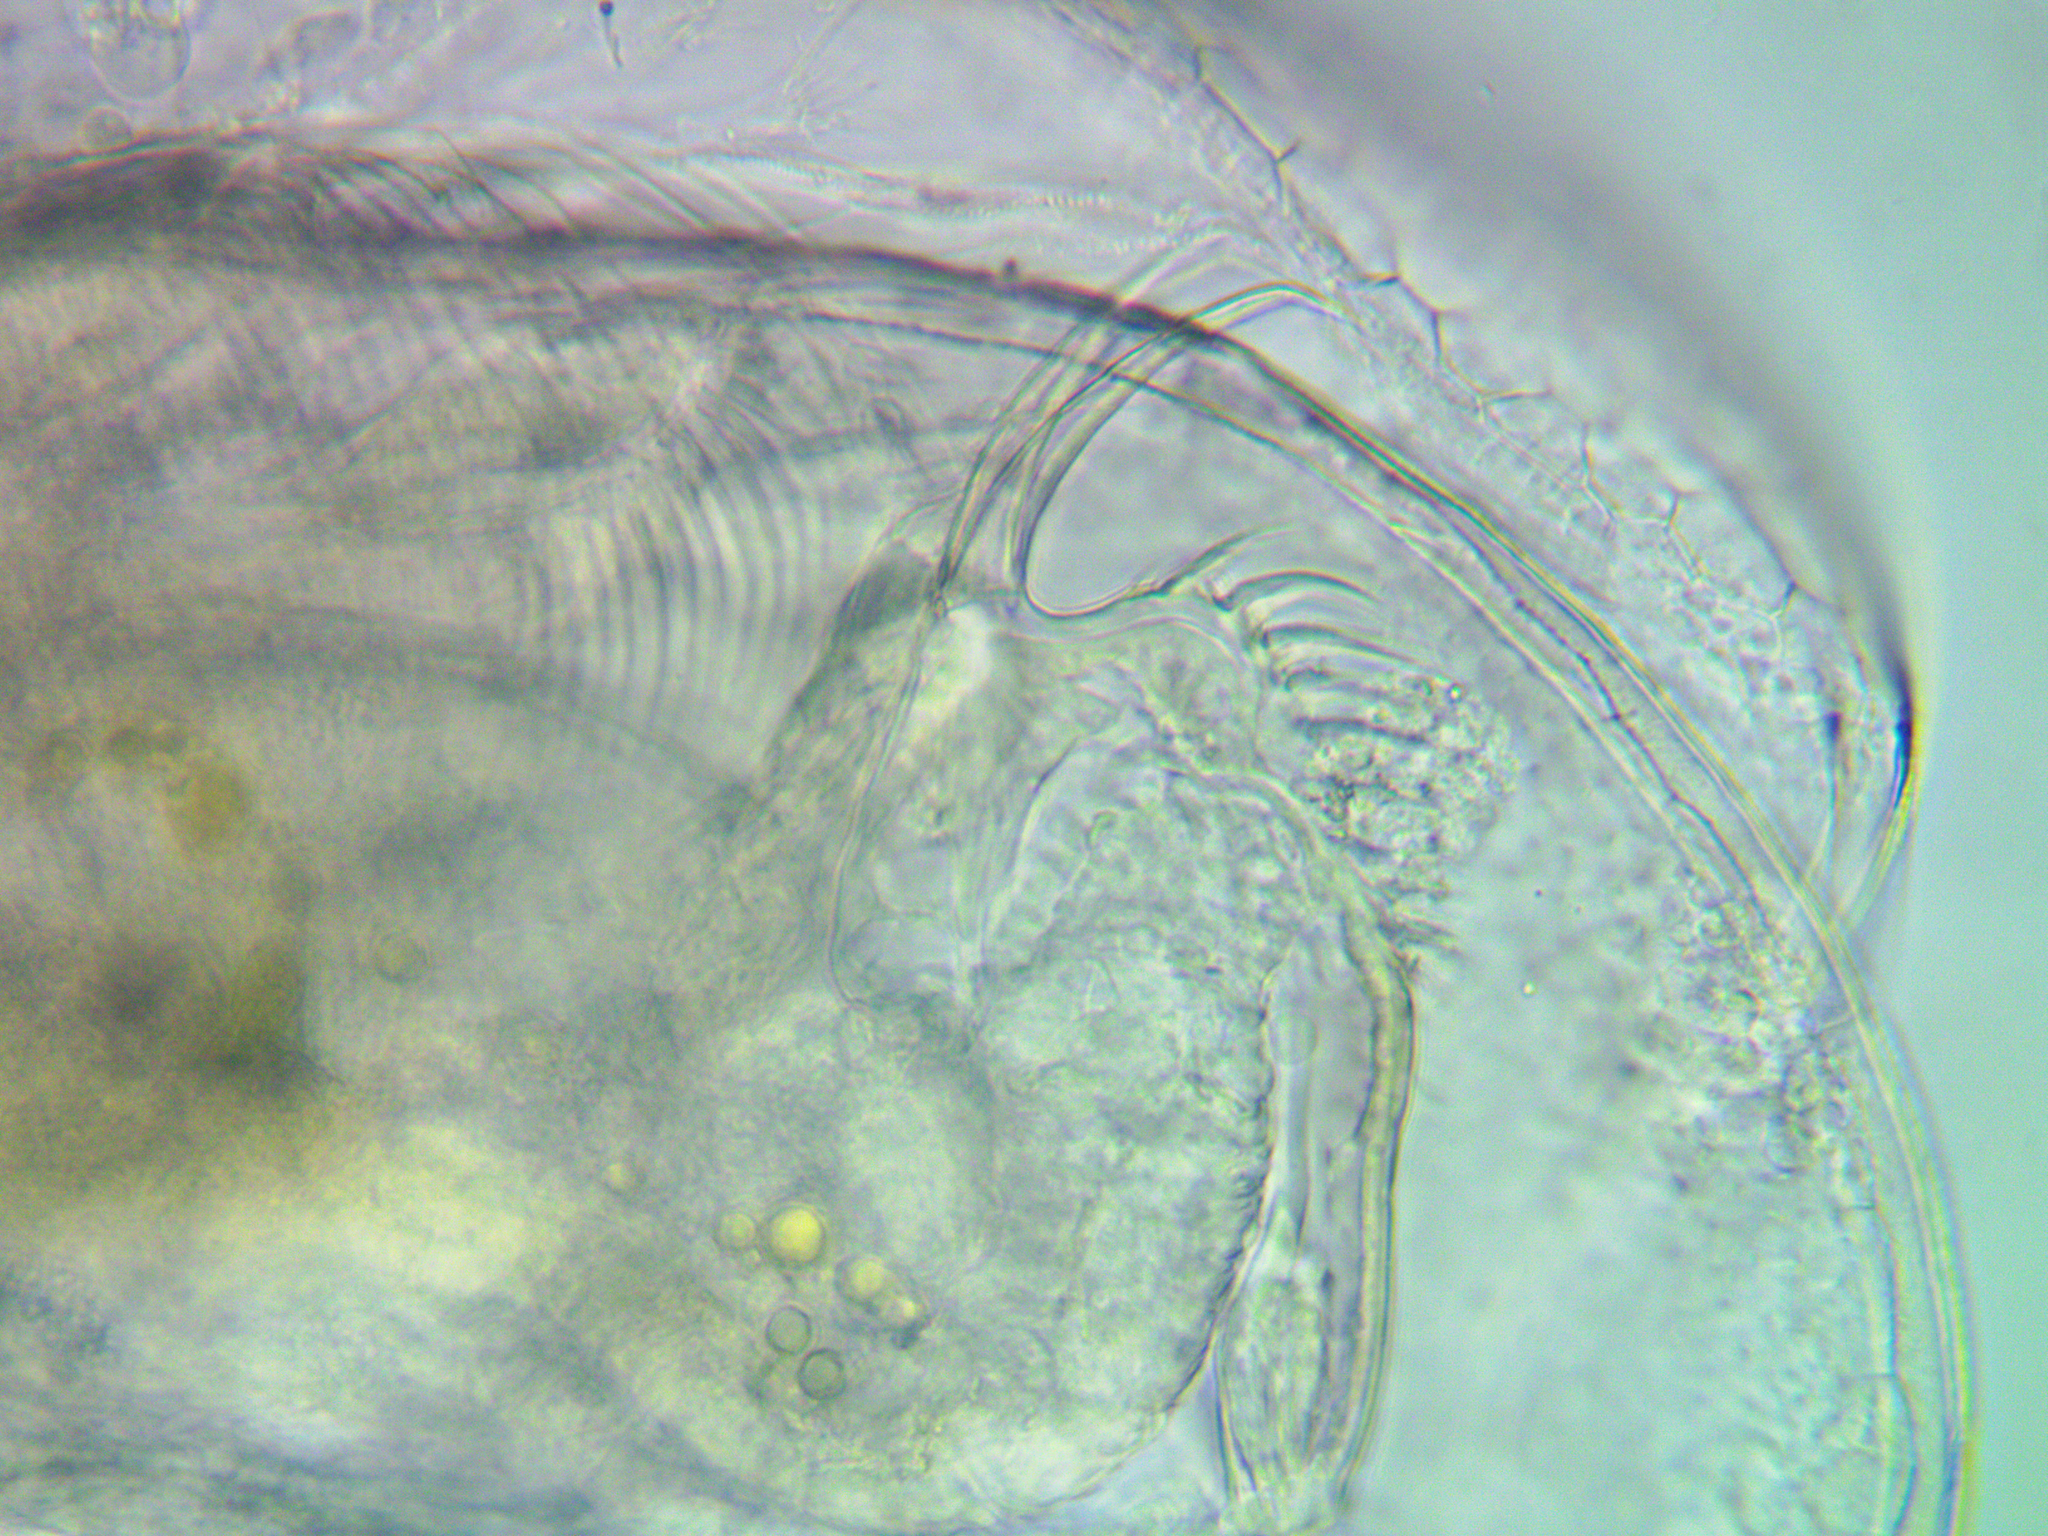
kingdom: Animalia
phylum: Arthropoda
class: Branchiopoda
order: Diplostraca
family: Daphniidae
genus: Ceriodaphnia
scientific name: Ceriodaphnia pulchella
